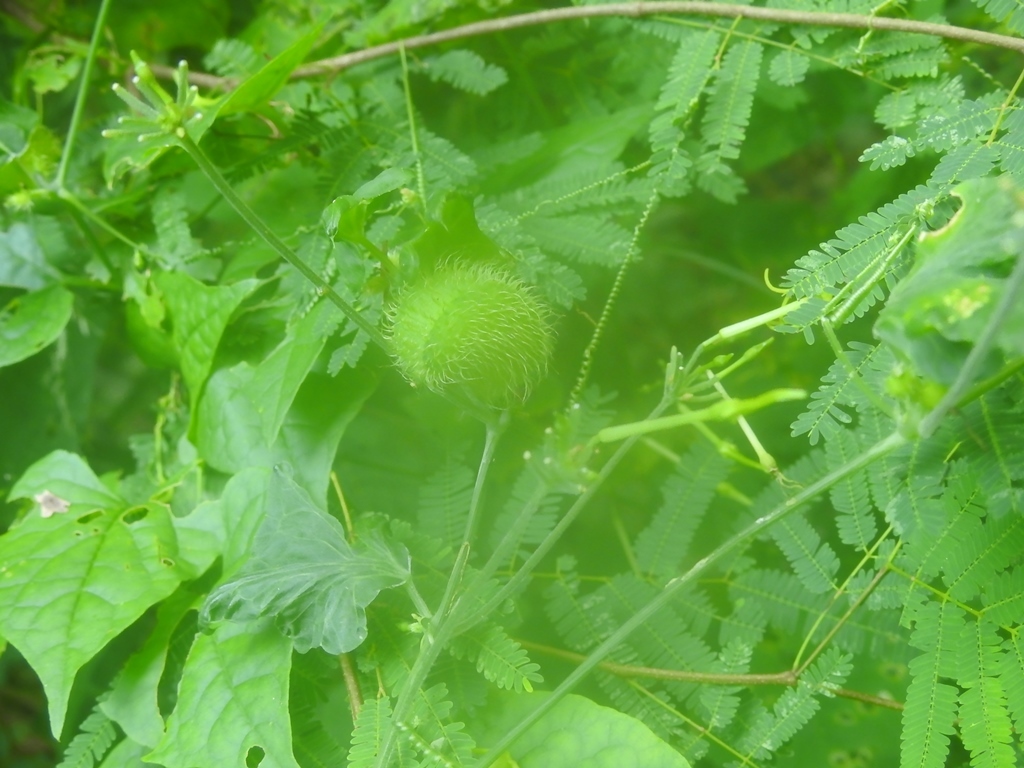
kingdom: Plantae
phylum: Tracheophyta
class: Magnoliopsida
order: Cucurbitales
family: Cucurbitaceae
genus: Cyclanthera
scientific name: Cyclanthera carthagenensis
